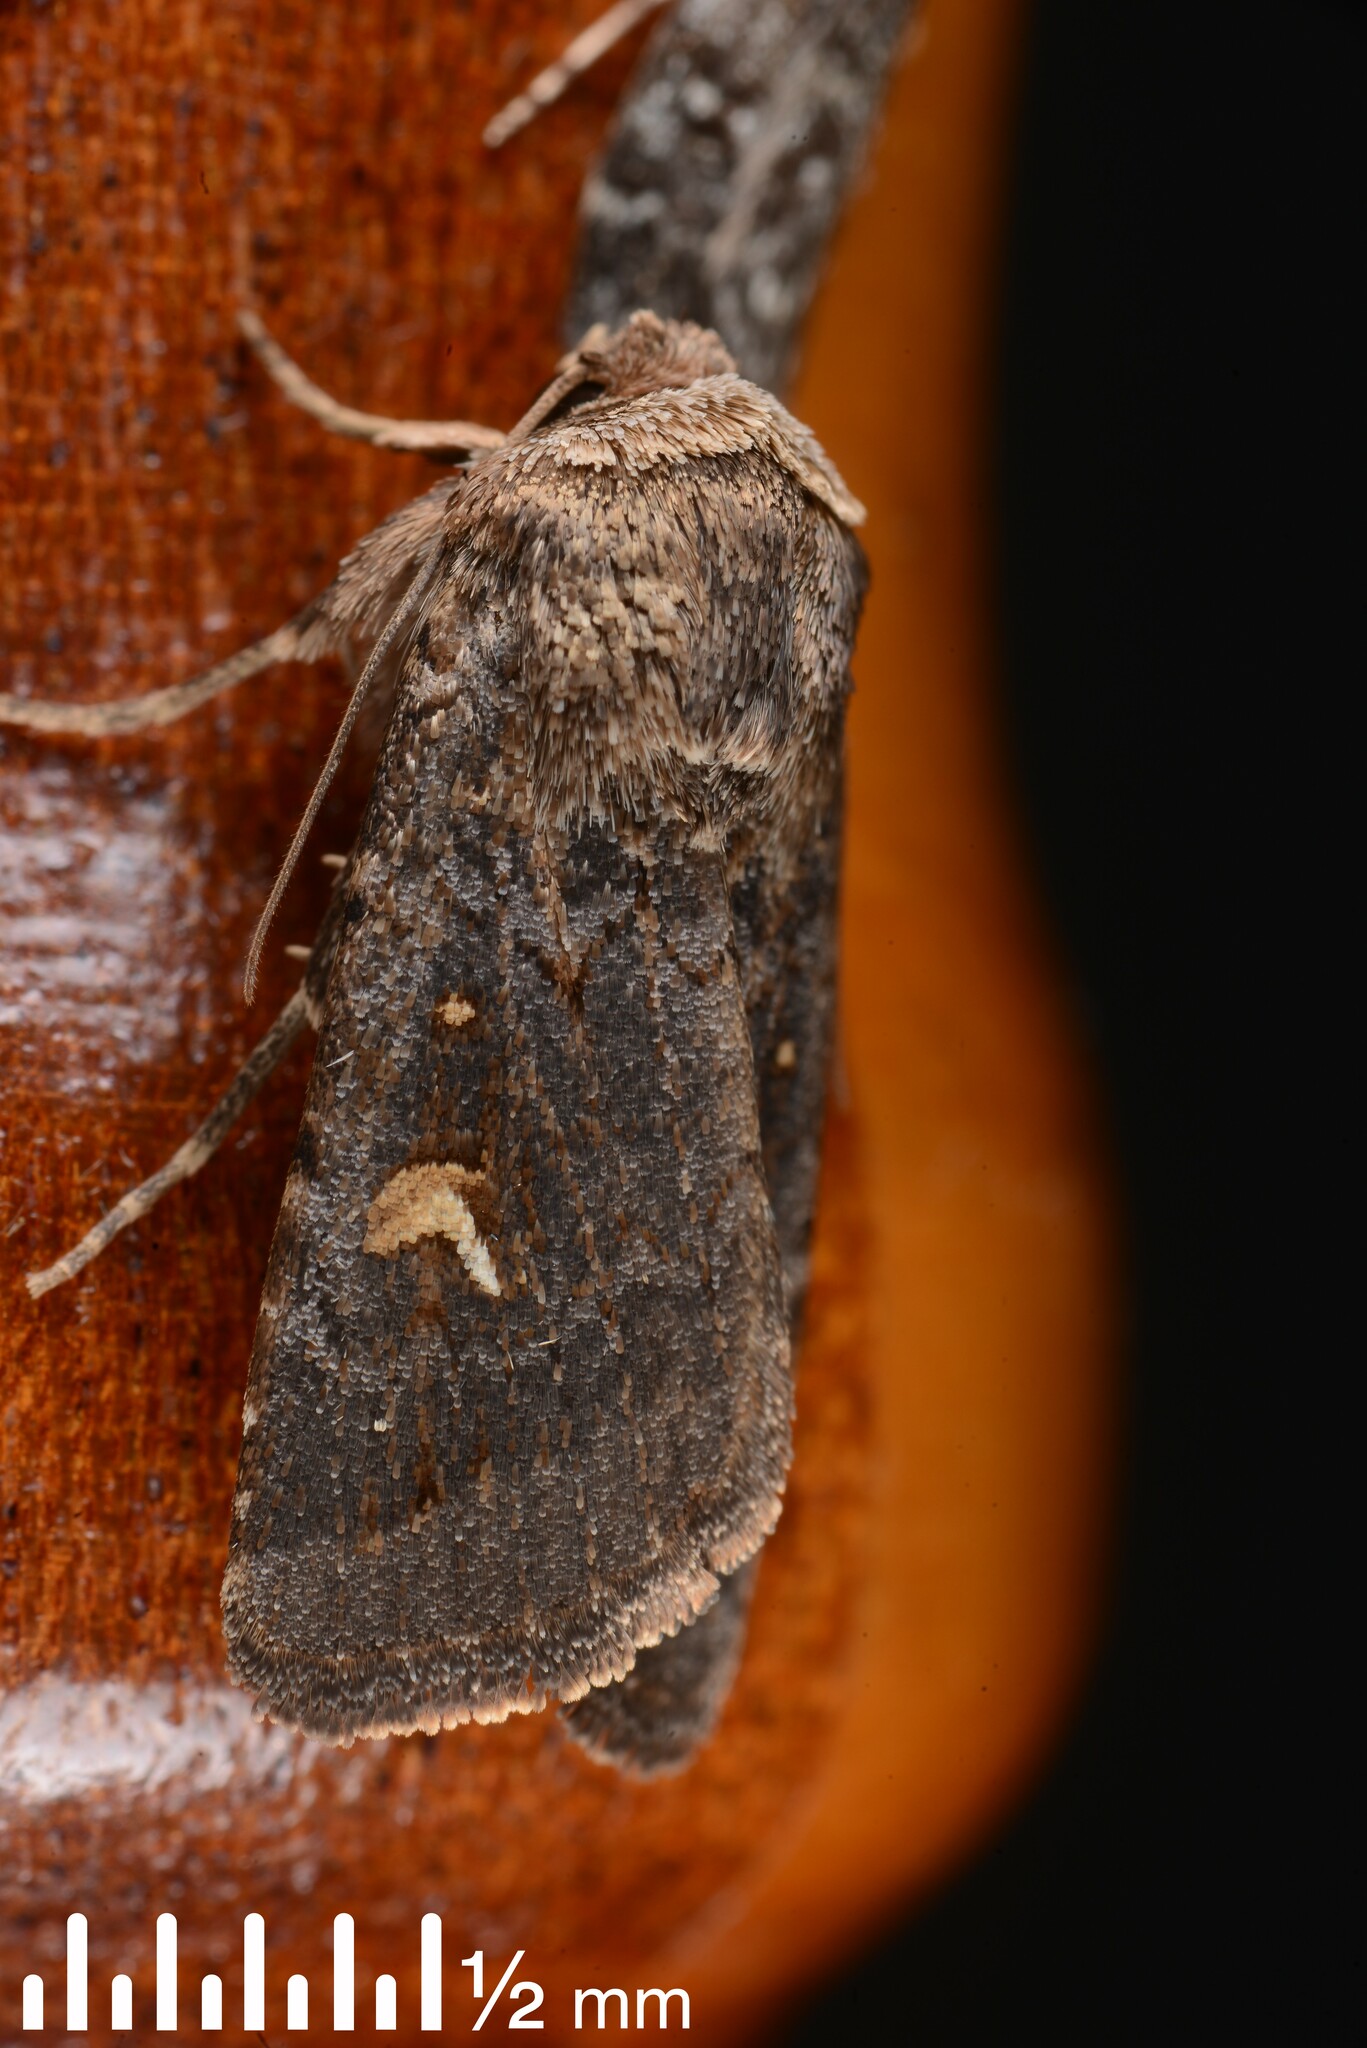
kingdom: Animalia
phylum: Arthropoda
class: Insecta
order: Lepidoptera
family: Noctuidae
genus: Proteuxoa
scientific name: Proteuxoa tetronycha
